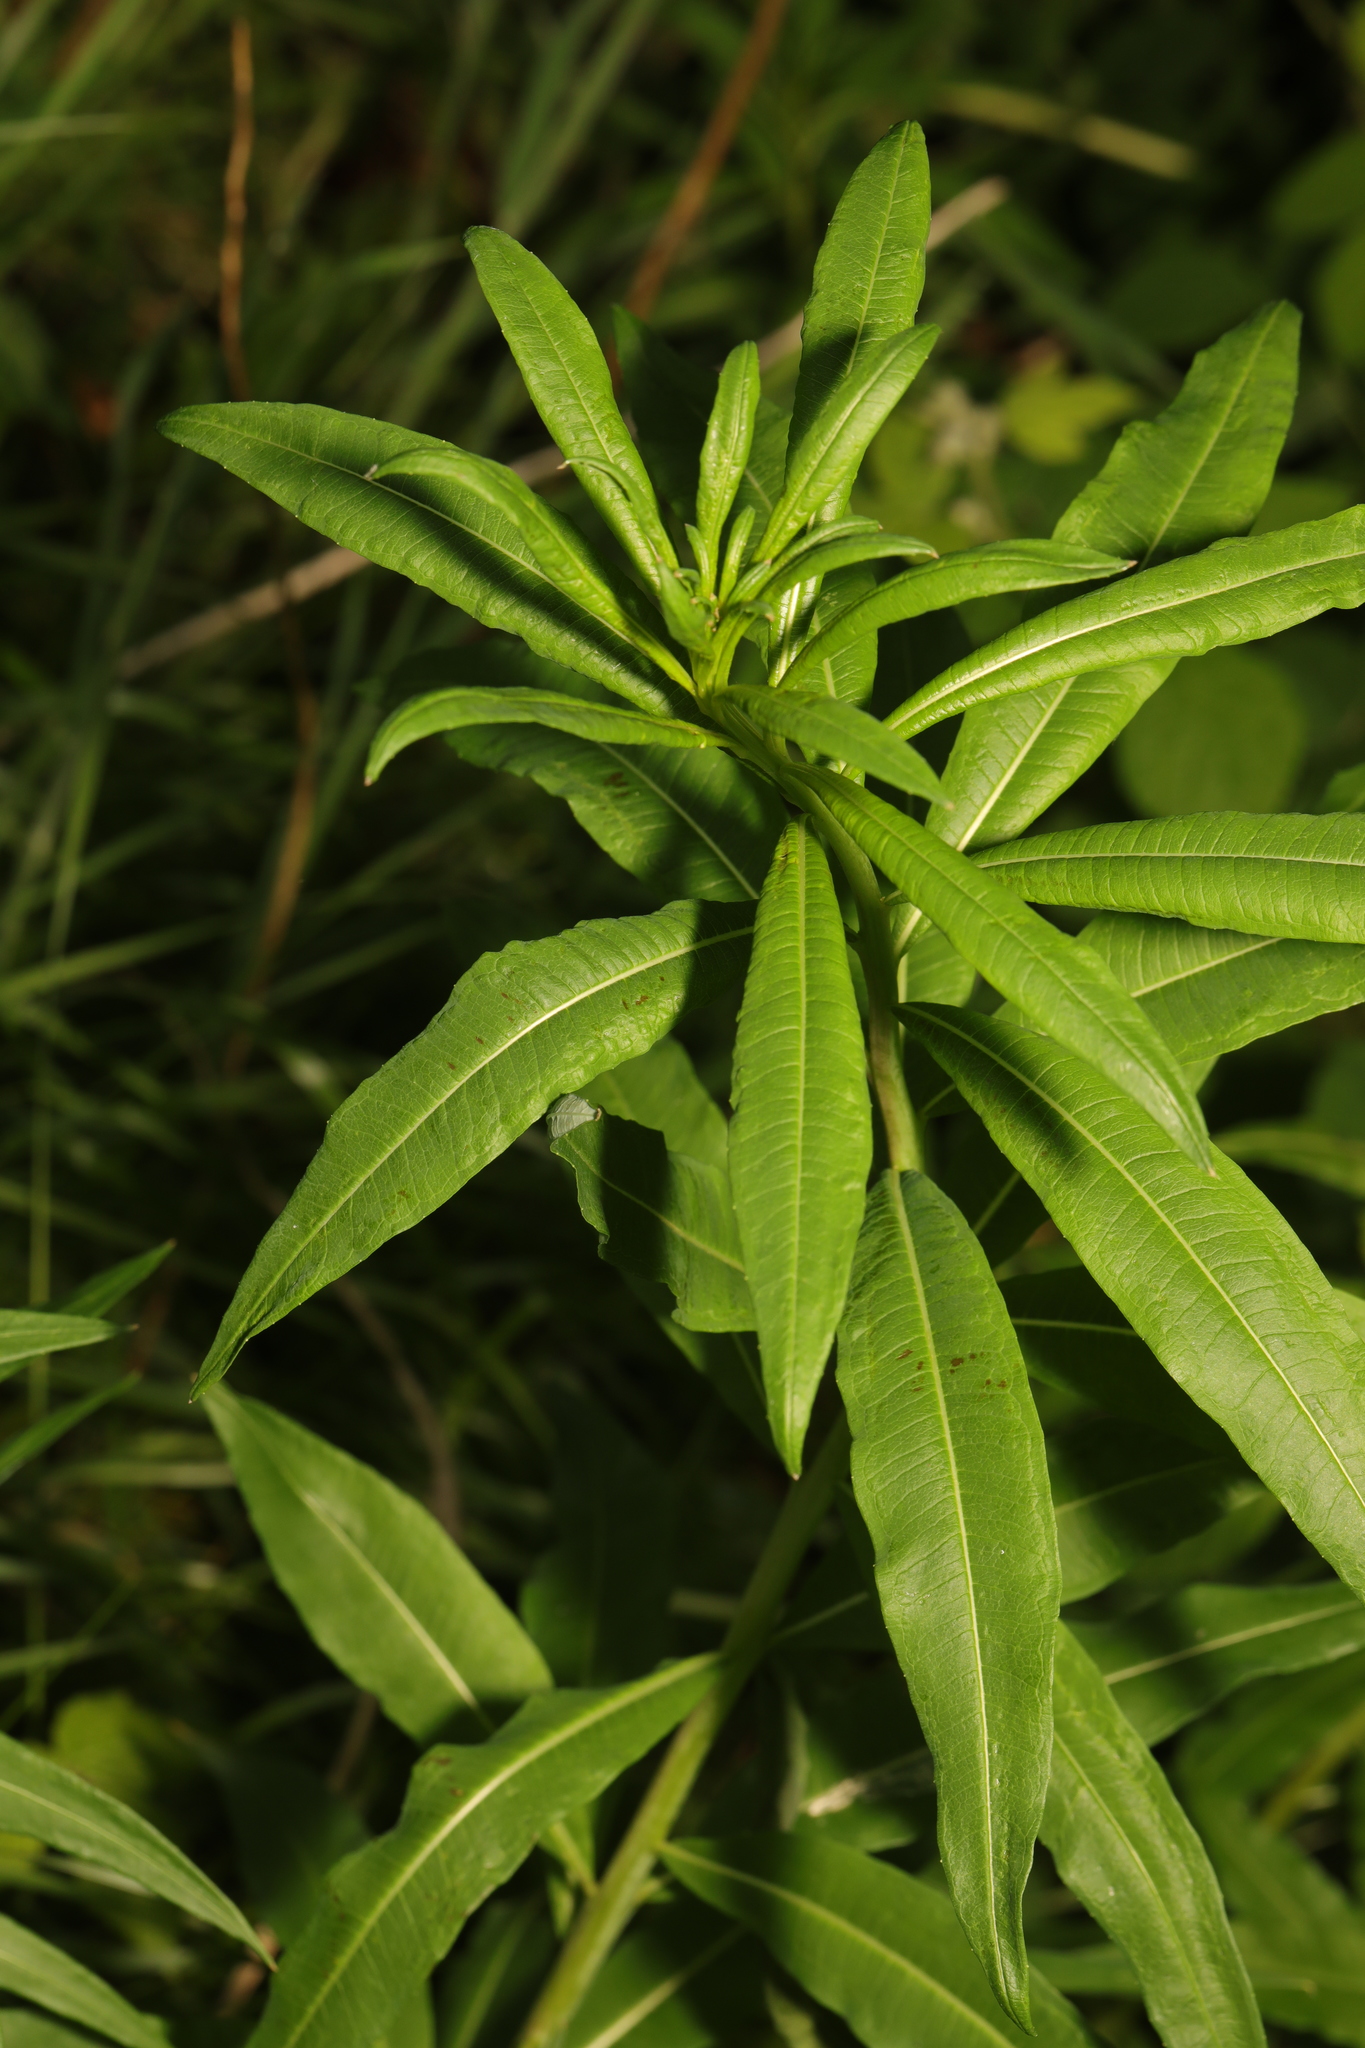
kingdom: Plantae
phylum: Tracheophyta
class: Magnoliopsida
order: Myrtales
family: Onagraceae
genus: Chamaenerion
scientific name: Chamaenerion angustifolium
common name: Fireweed
